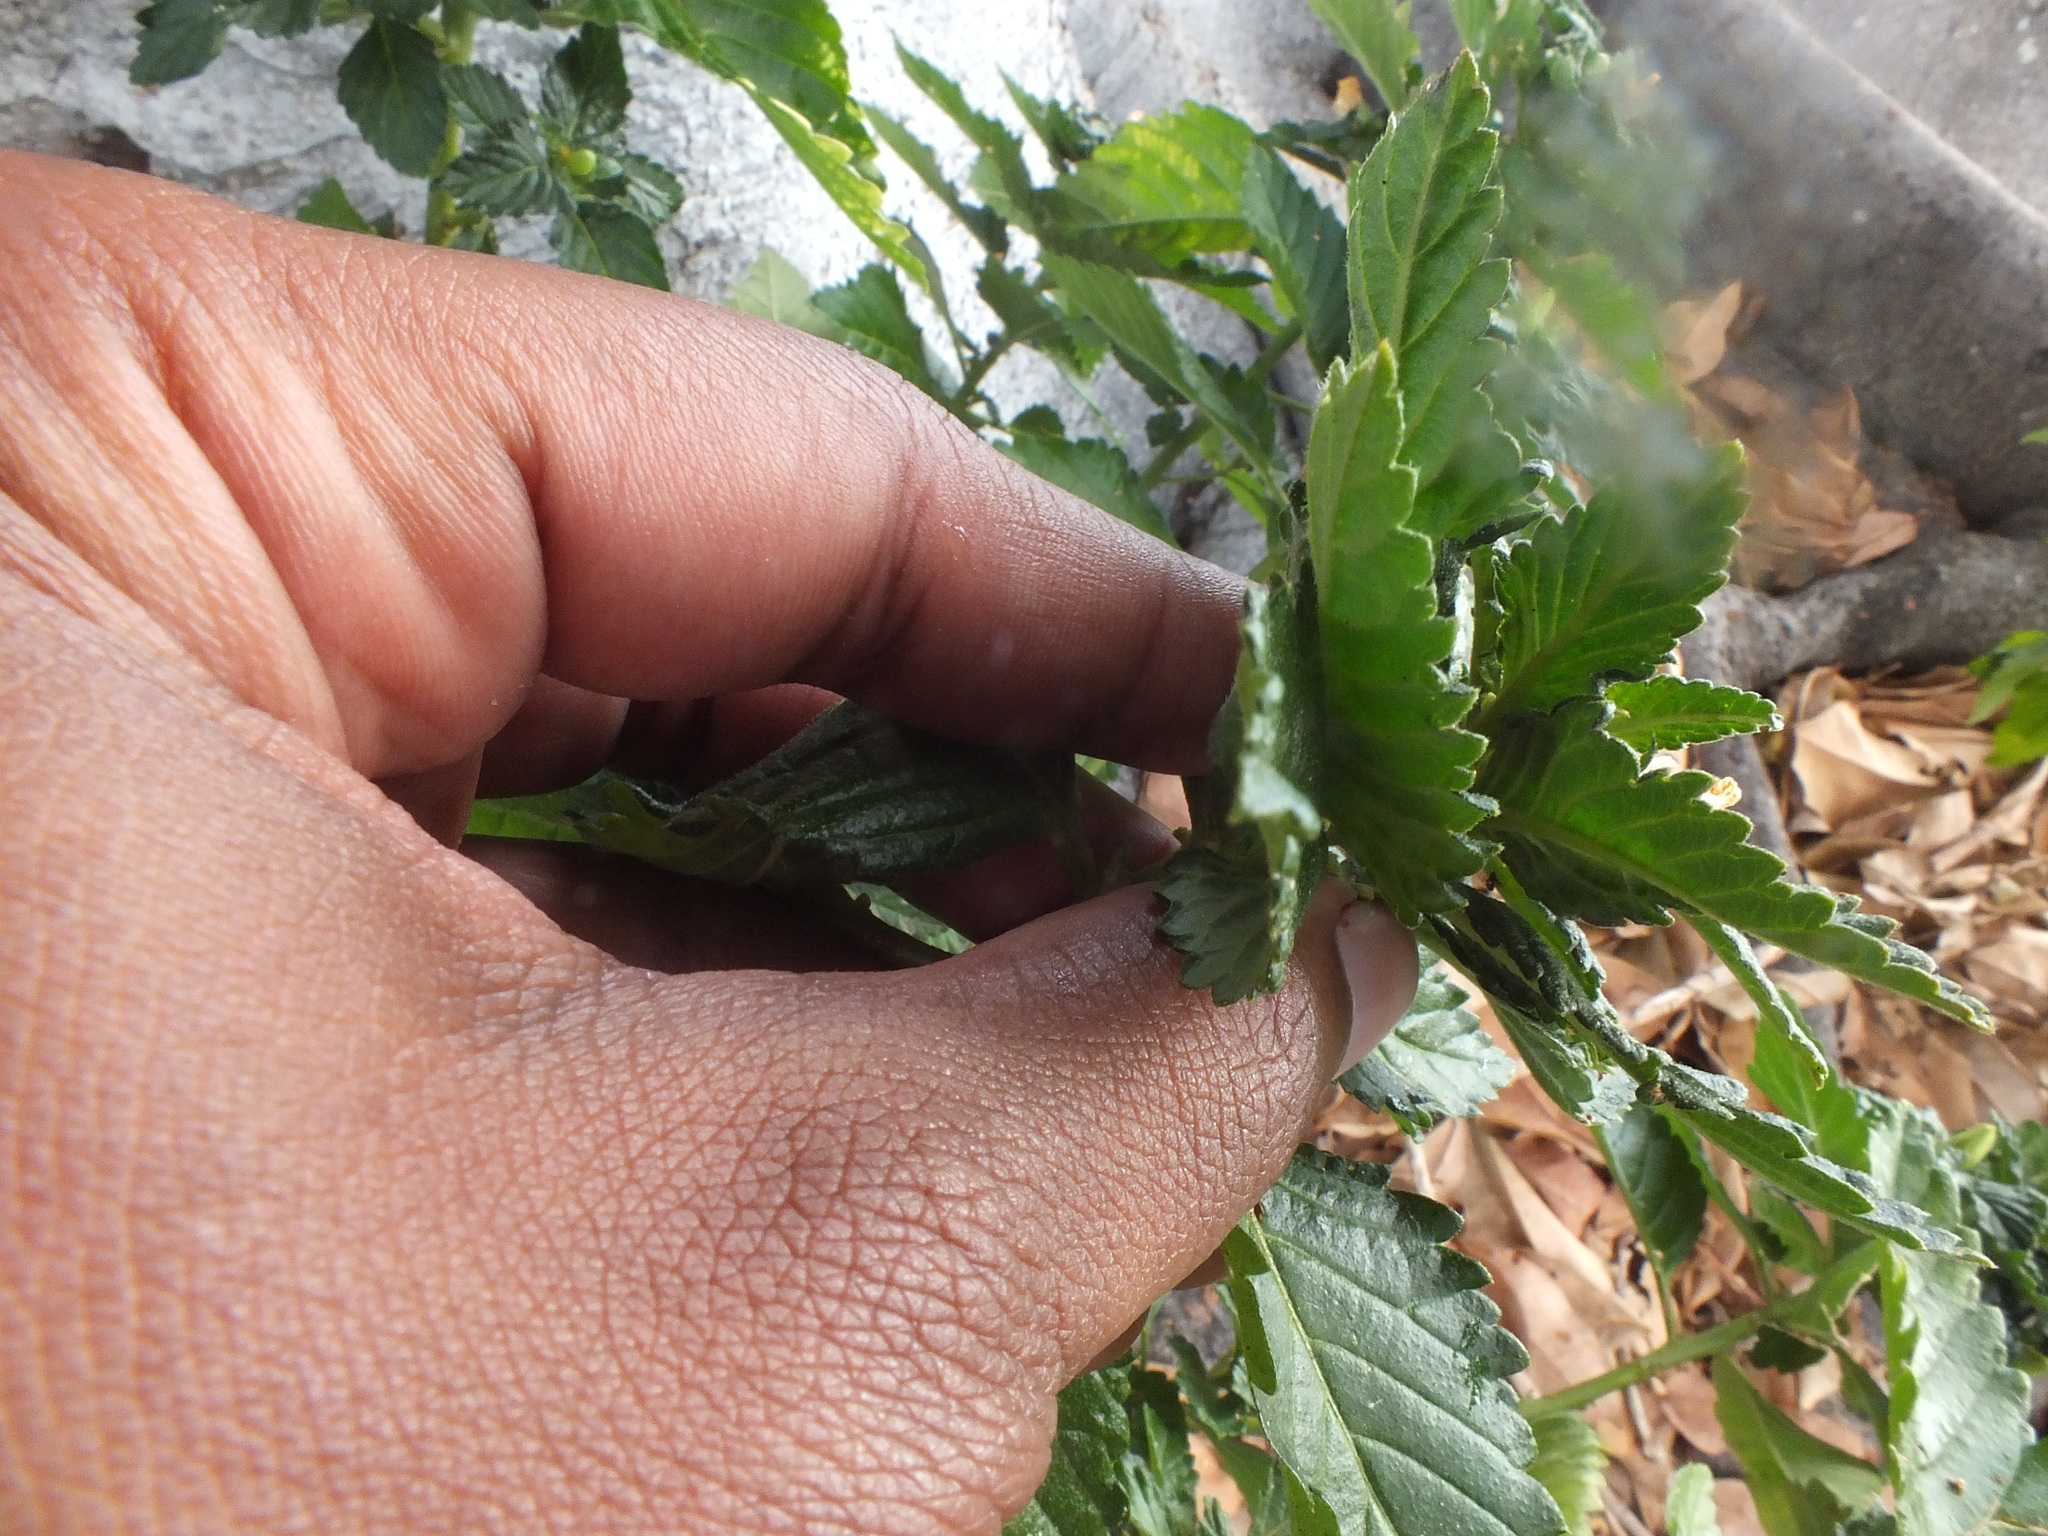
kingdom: Plantae
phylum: Tracheophyta
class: Magnoliopsida
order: Malpighiales
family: Turneraceae
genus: Turnera
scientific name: Turnera ulmifolia
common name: Ramgoat dashalong
